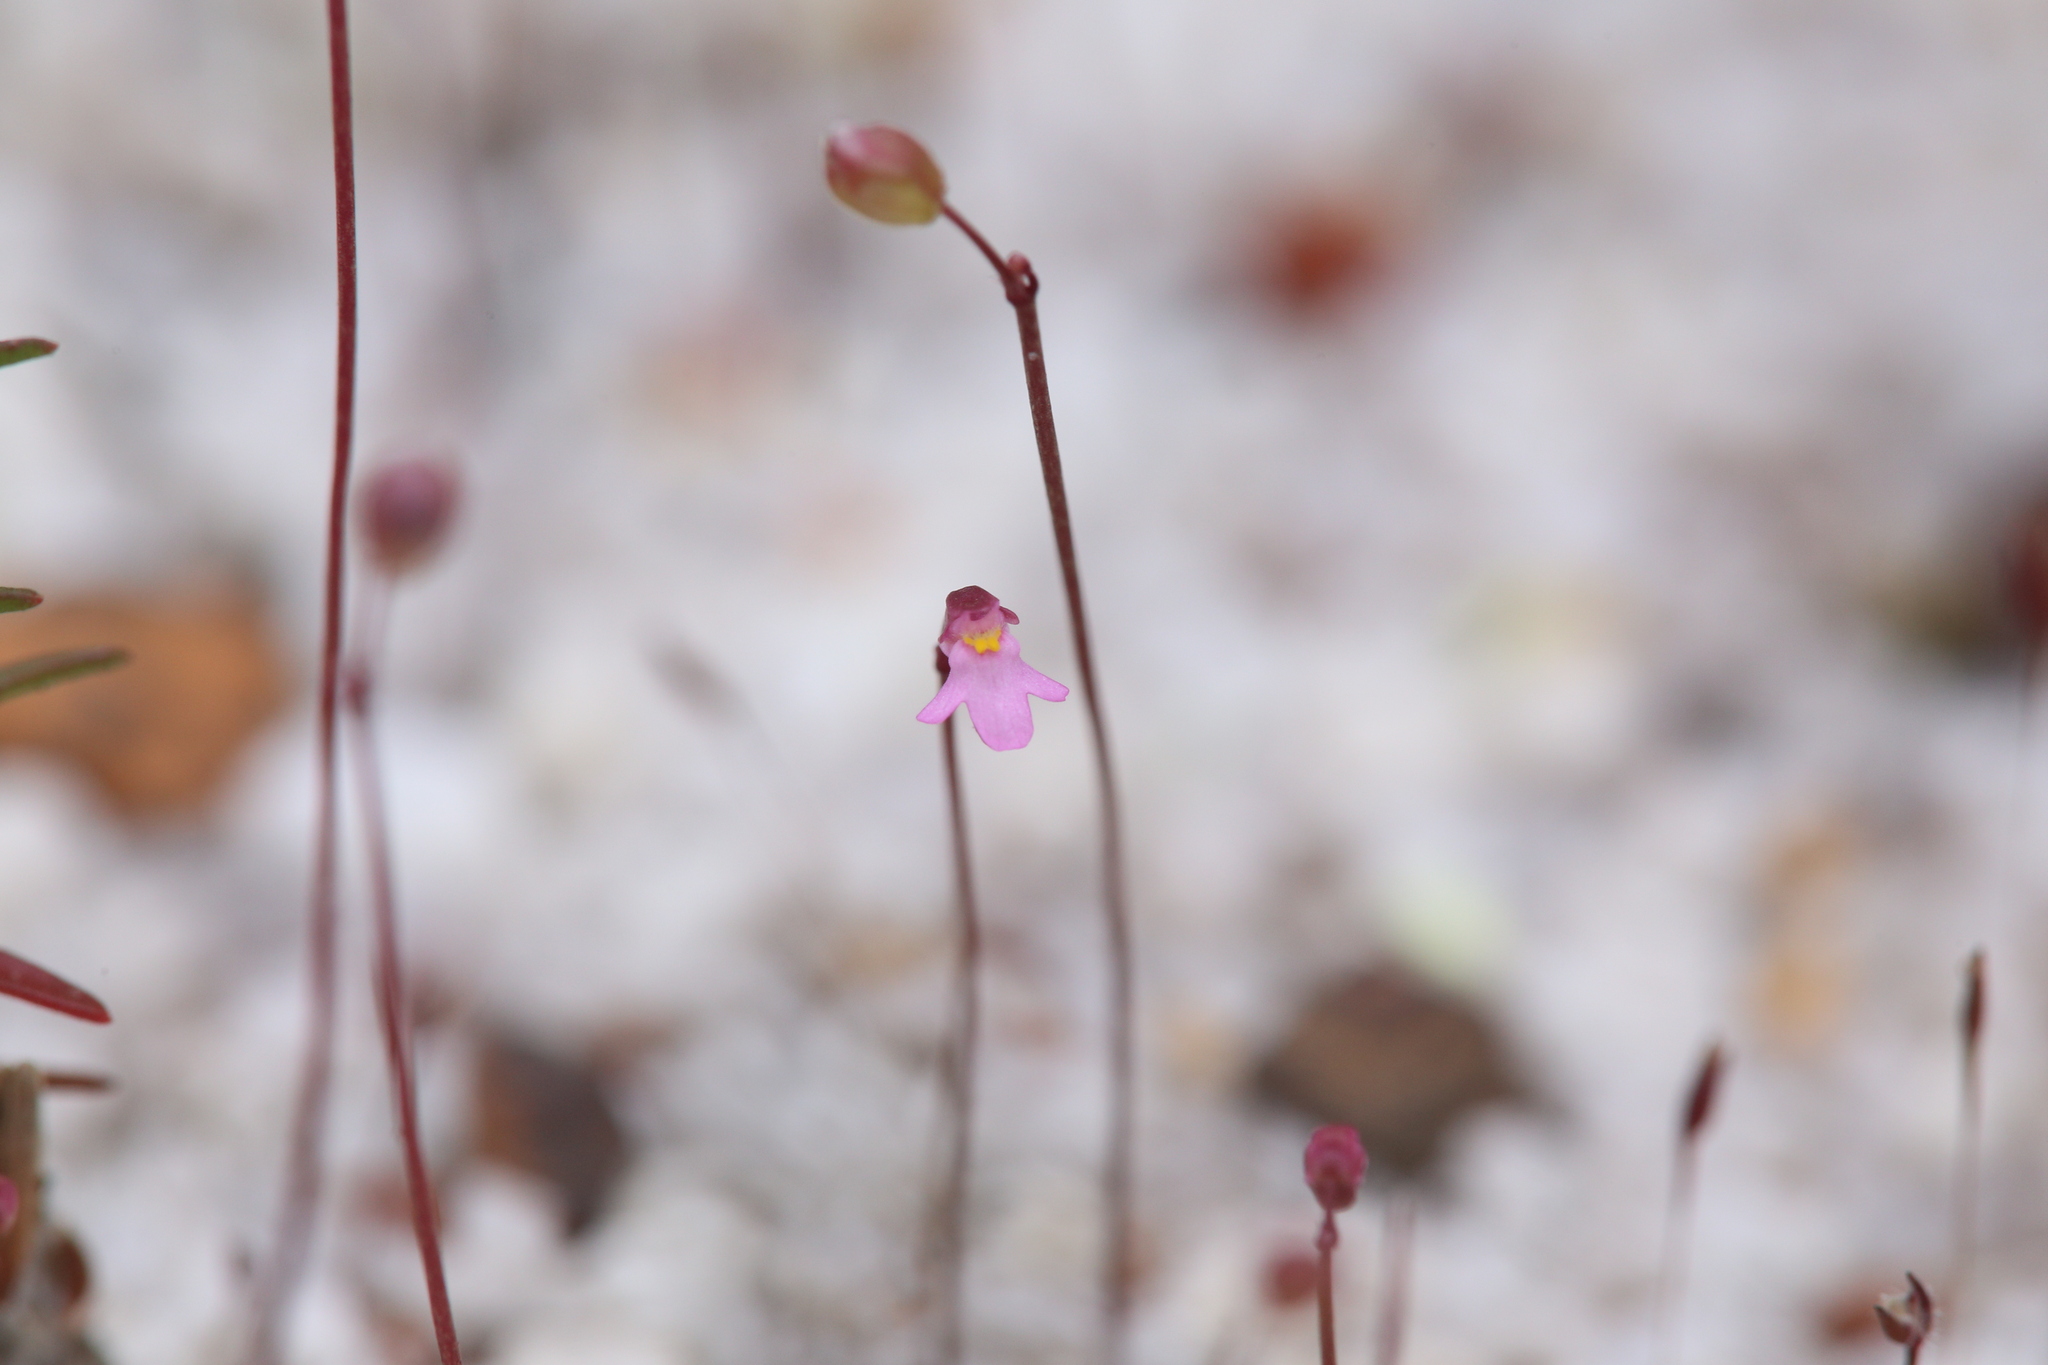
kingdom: Plantae
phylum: Tracheophyta
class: Magnoliopsida
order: Lamiales
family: Lentibulariaceae
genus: Utricularia
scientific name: Utricularia tenella
